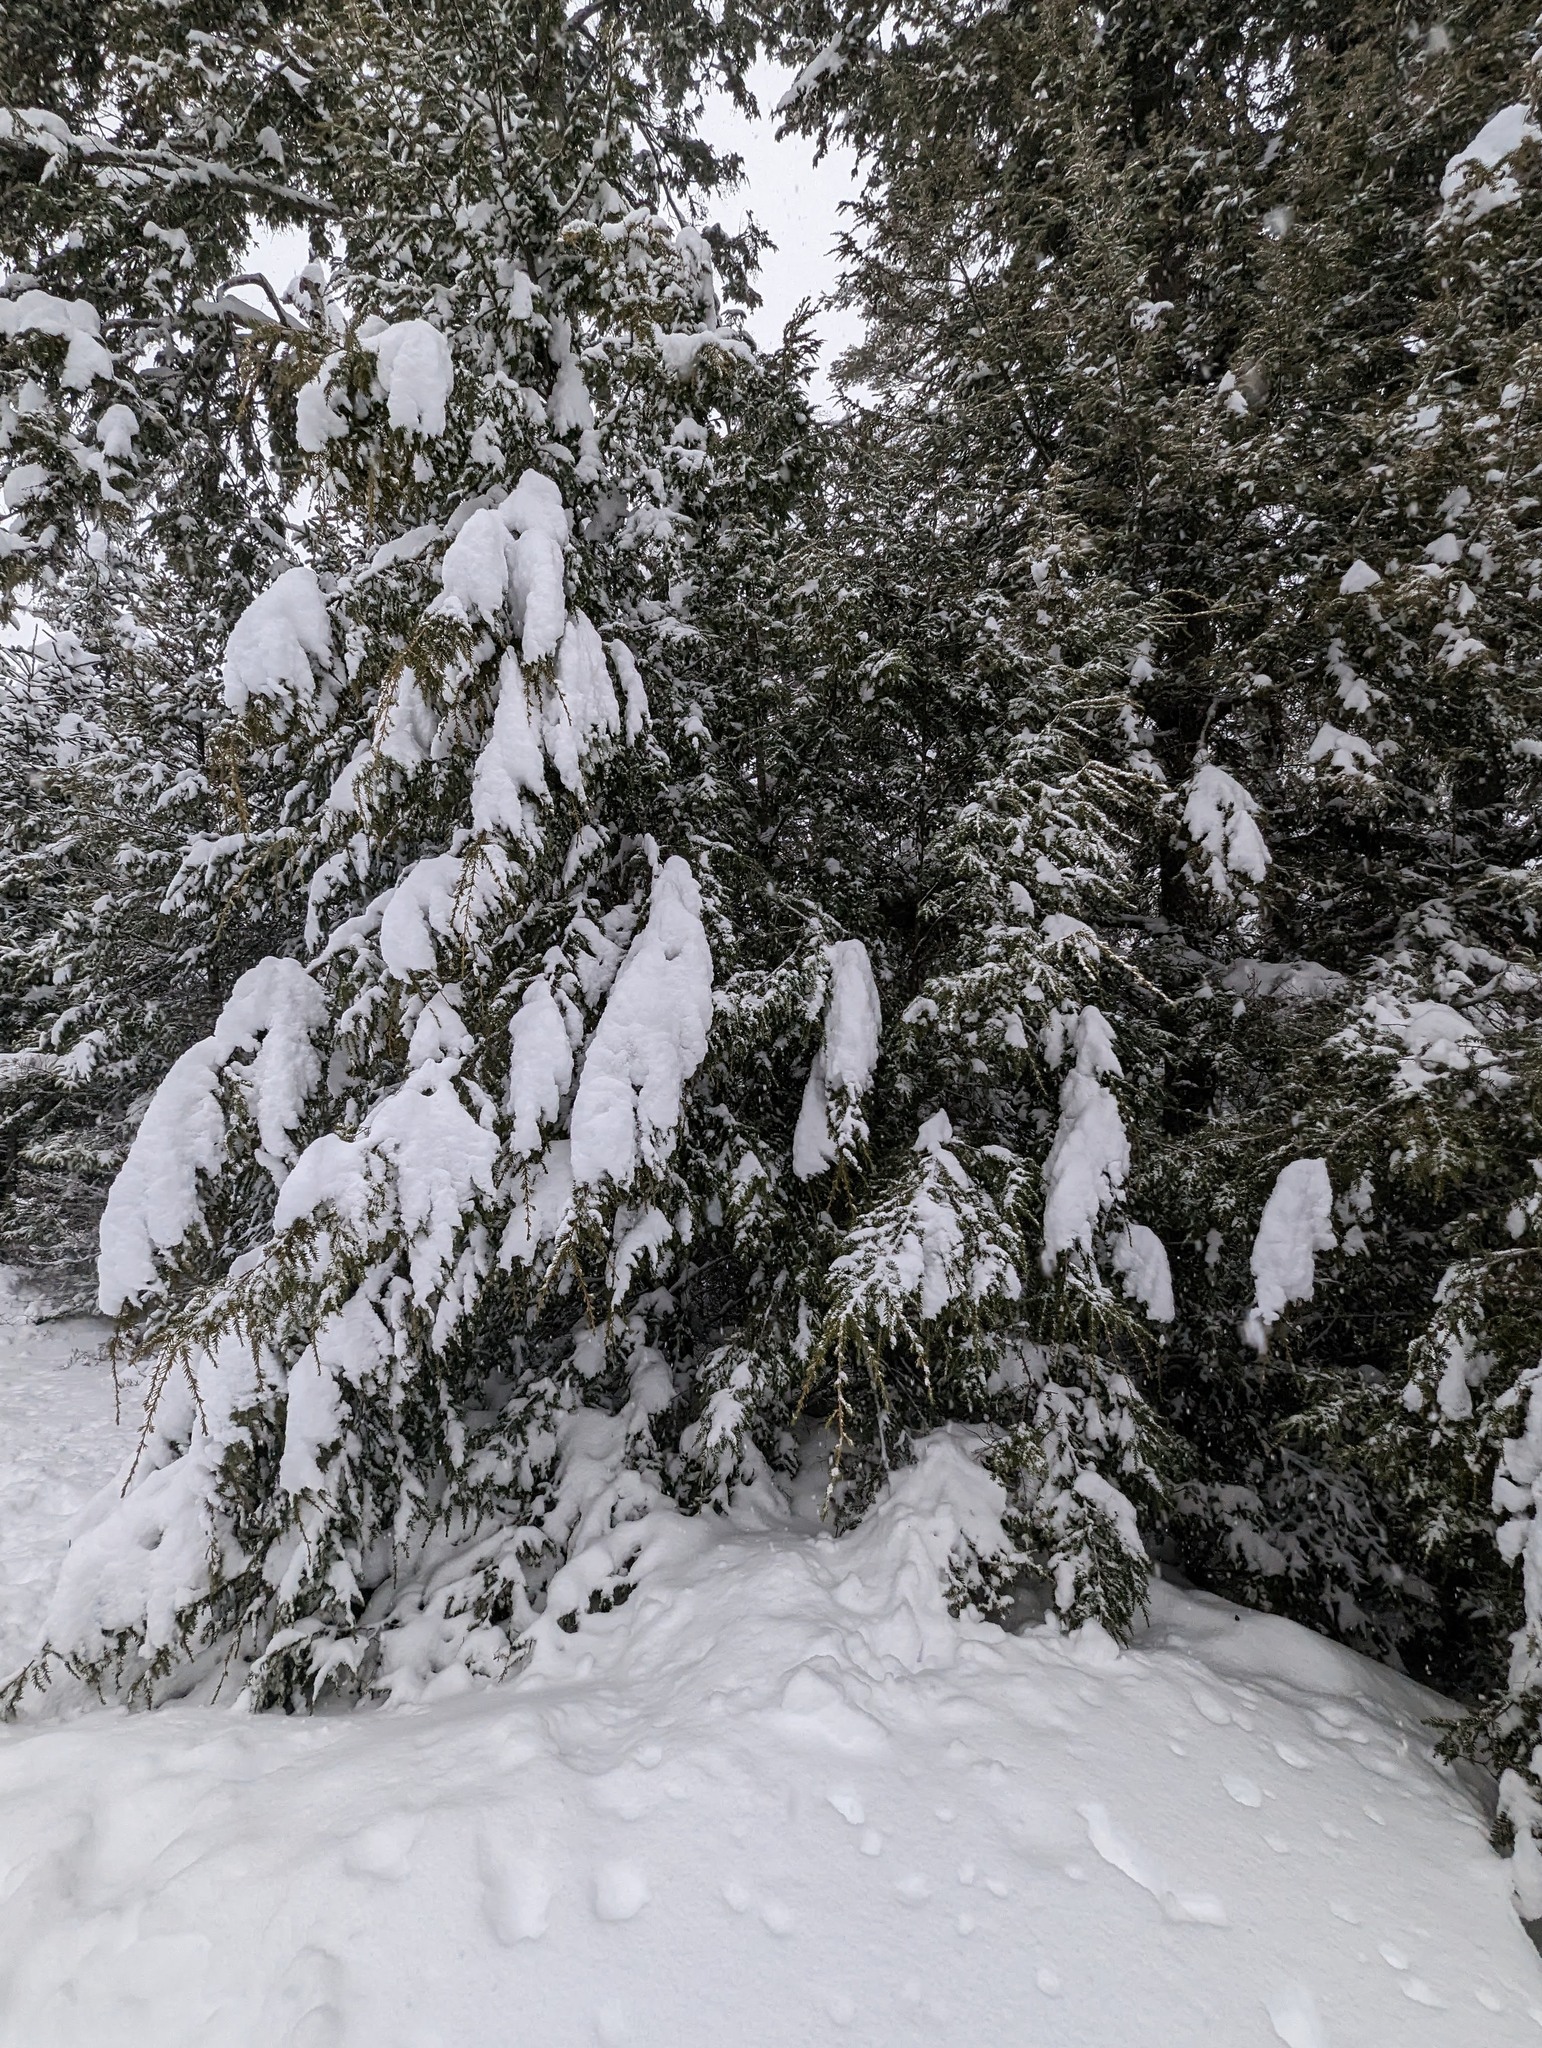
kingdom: Plantae
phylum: Tracheophyta
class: Pinopsida
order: Pinales
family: Pinaceae
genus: Tsuga
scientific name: Tsuga canadensis
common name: Eastern hemlock
